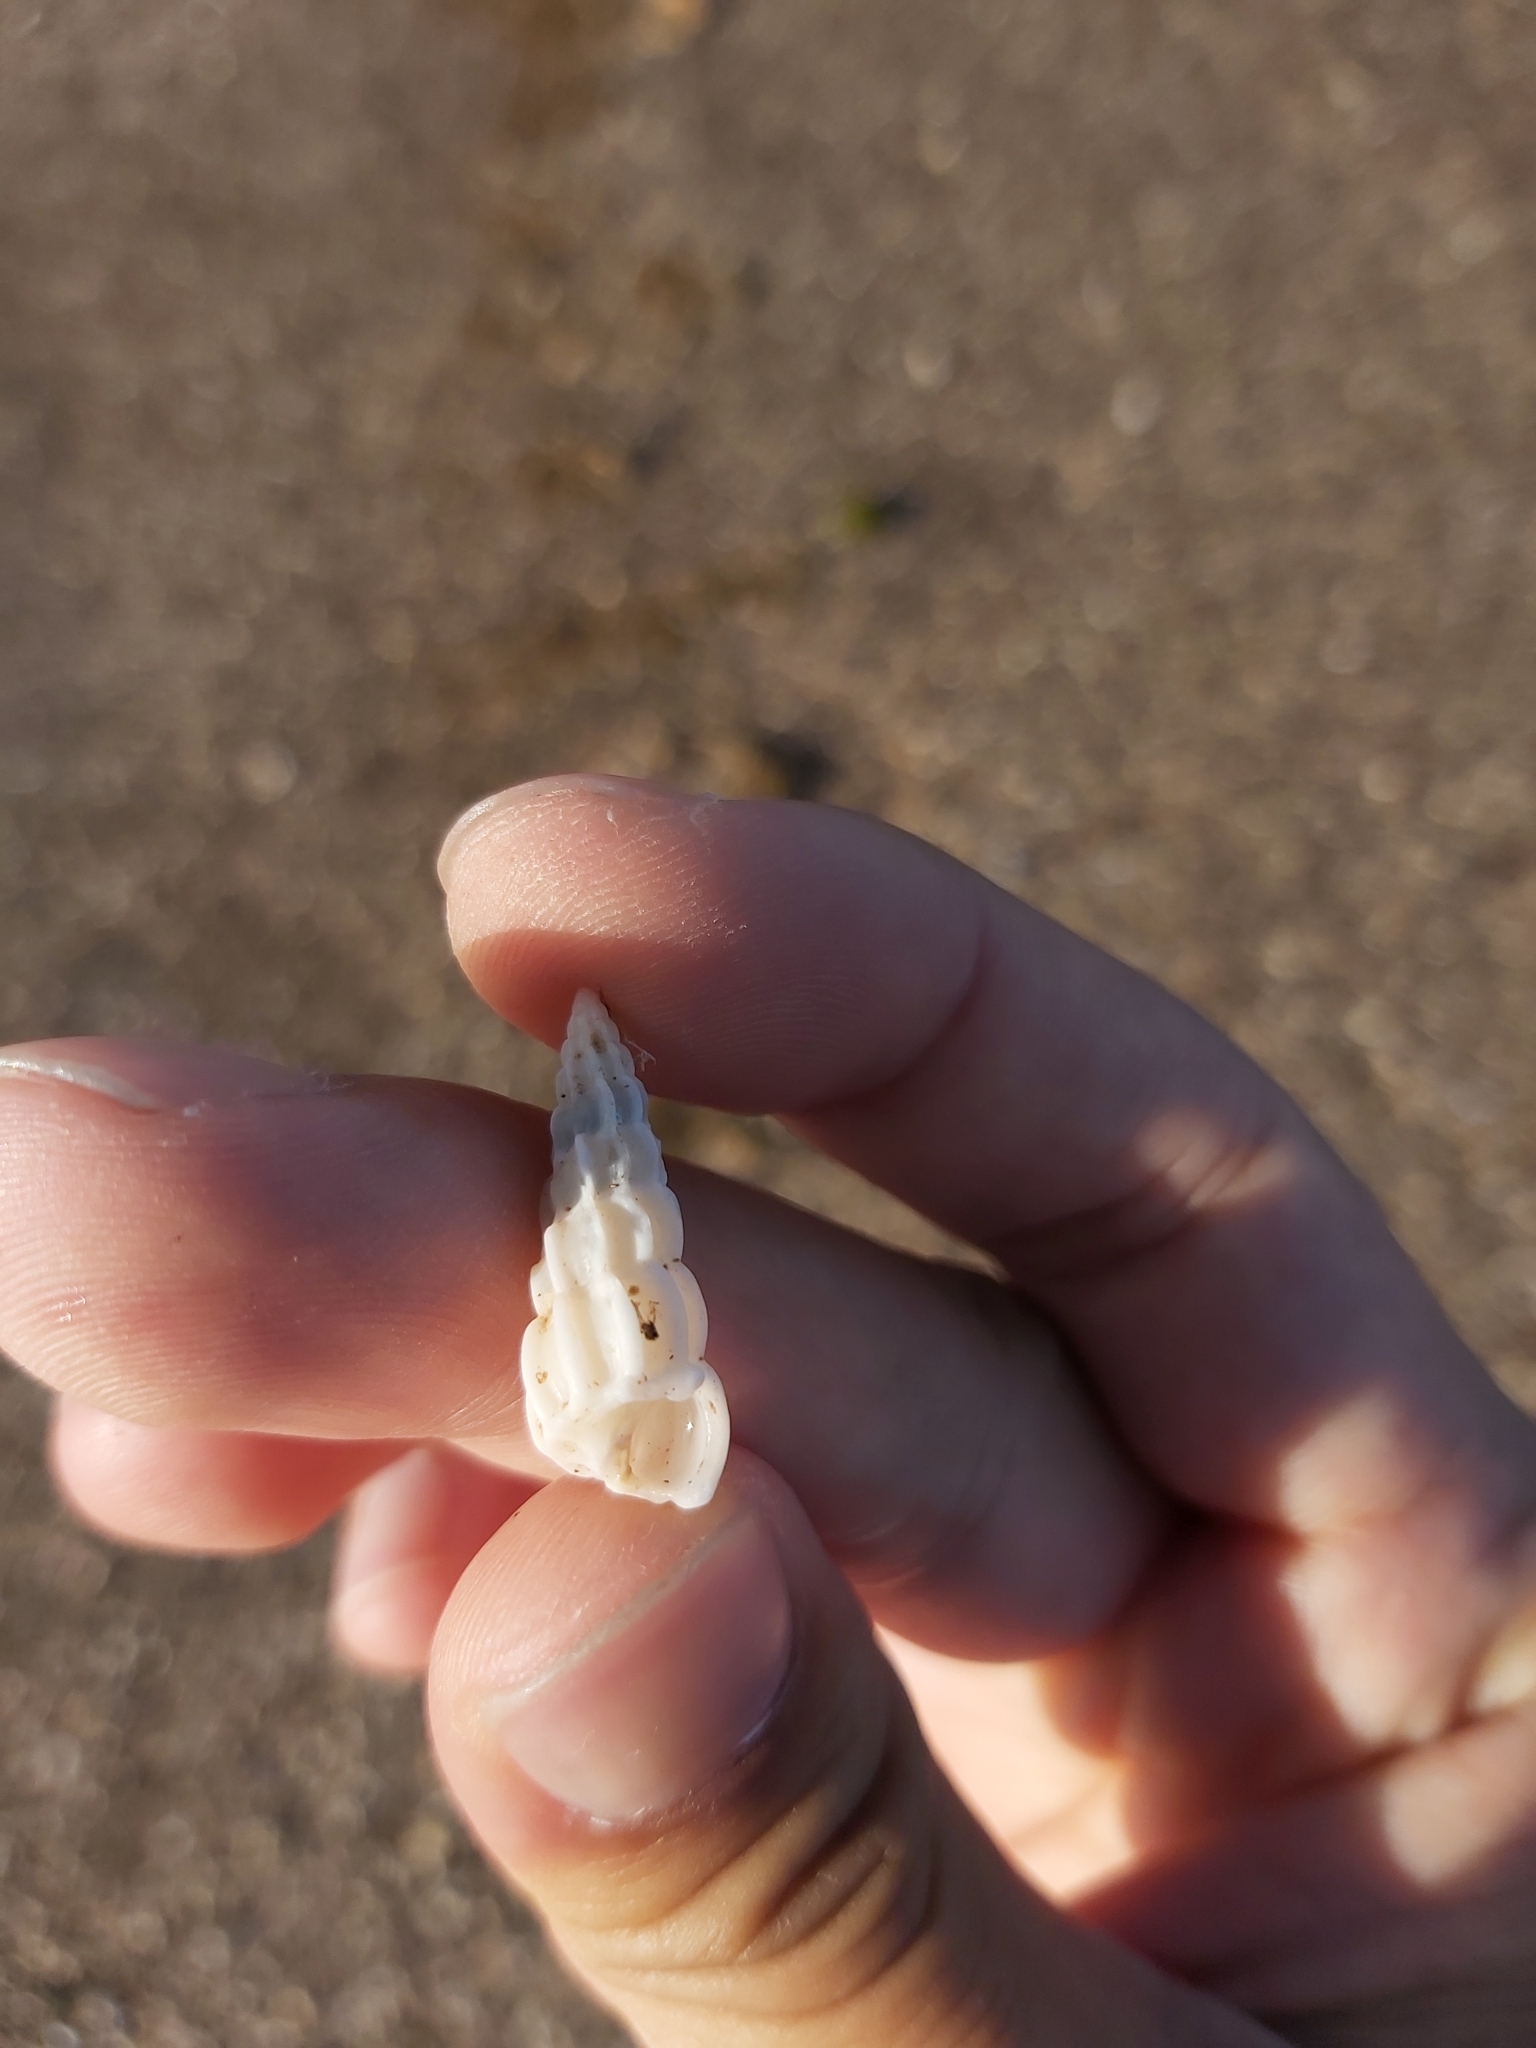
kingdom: Animalia
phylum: Mollusca
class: Gastropoda
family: Epitoniidae
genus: Opalia
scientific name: Opalia australis
